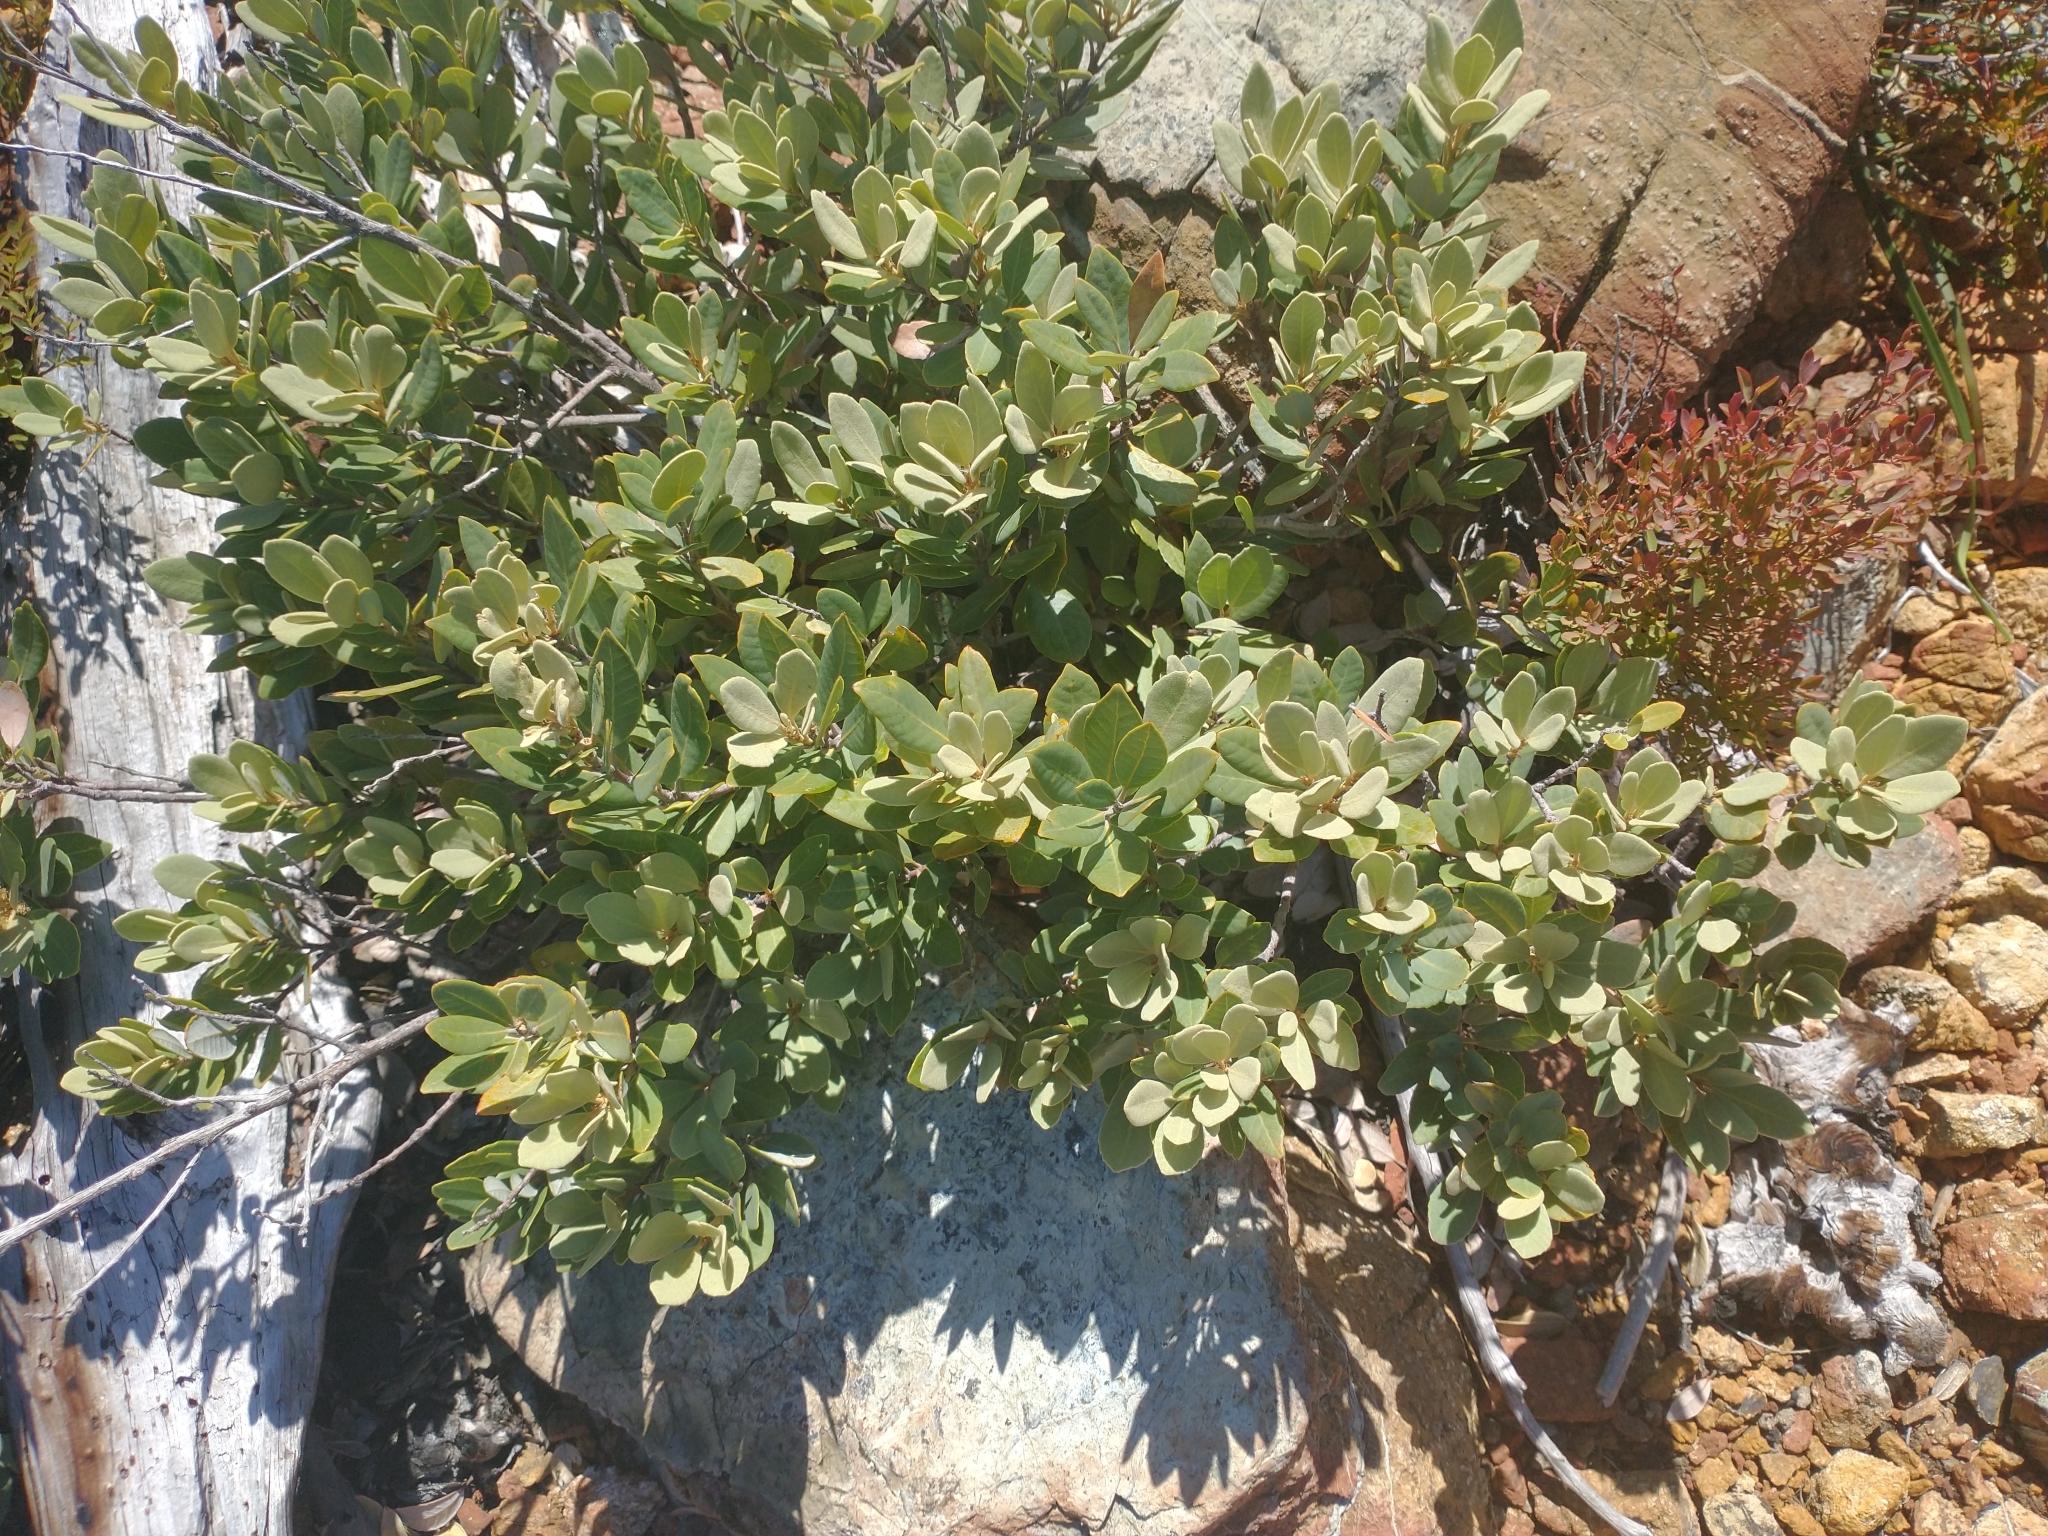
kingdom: Plantae
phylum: Tracheophyta
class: Magnoliopsida
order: Fagales
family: Fagaceae
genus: Notholithocarpus
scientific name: Notholithocarpus densiflorus
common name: Tan bark oak
